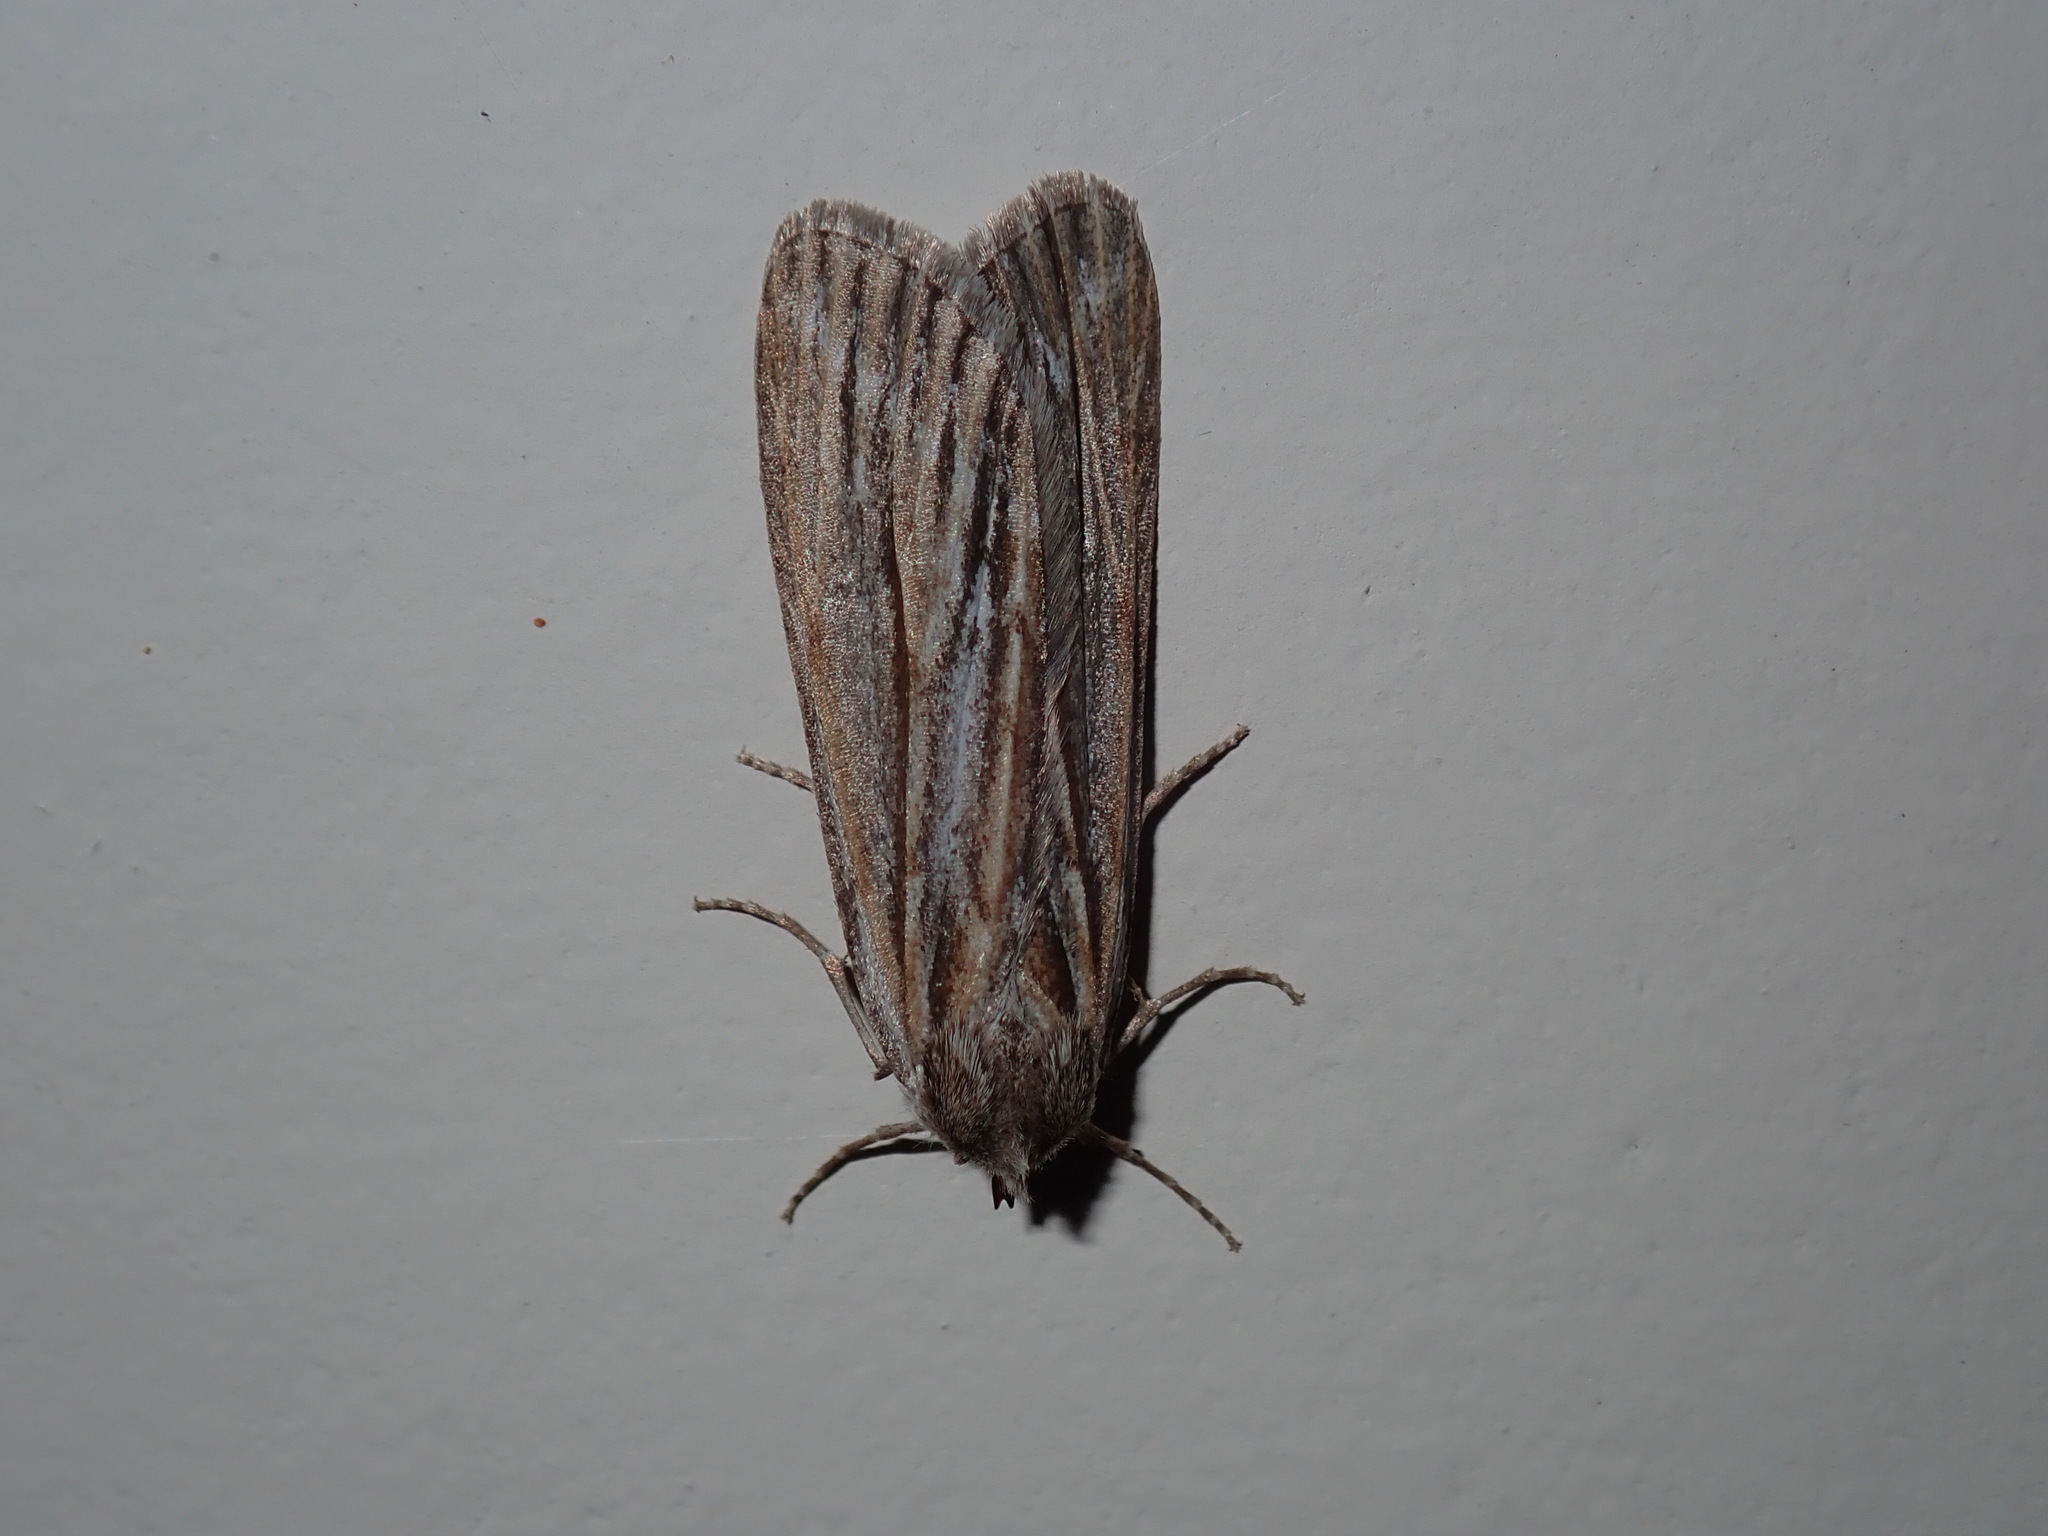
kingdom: Animalia
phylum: Arthropoda
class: Insecta
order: Lepidoptera
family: Geometridae
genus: Ciampa
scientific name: Ciampa arietaria
